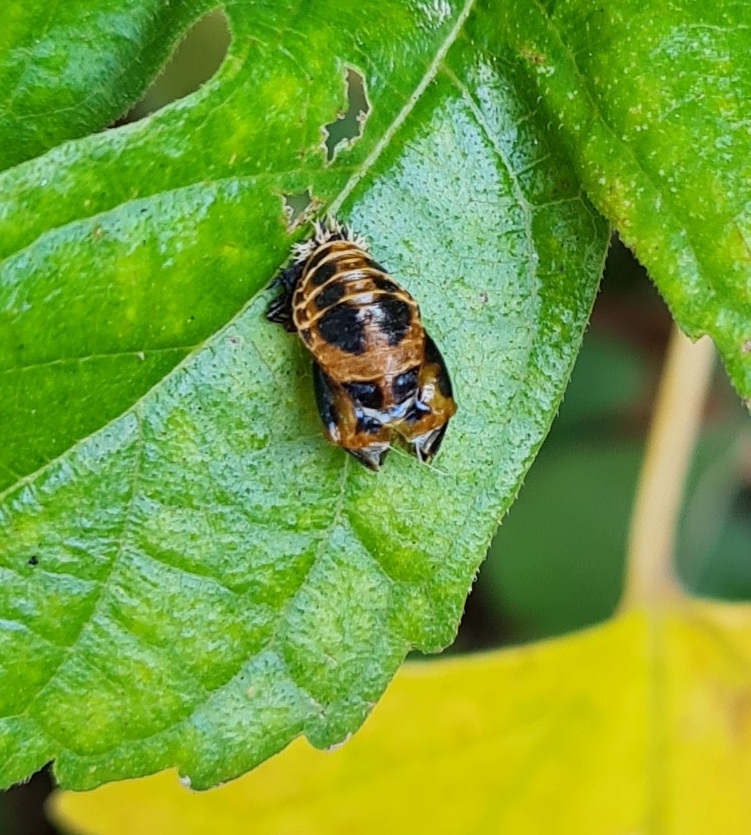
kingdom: Animalia
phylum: Arthropoda
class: Insecta
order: Coleoptera
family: Coccinellidae
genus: Harmonia
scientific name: Harmonia axyridis
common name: Harlequin ladybird
